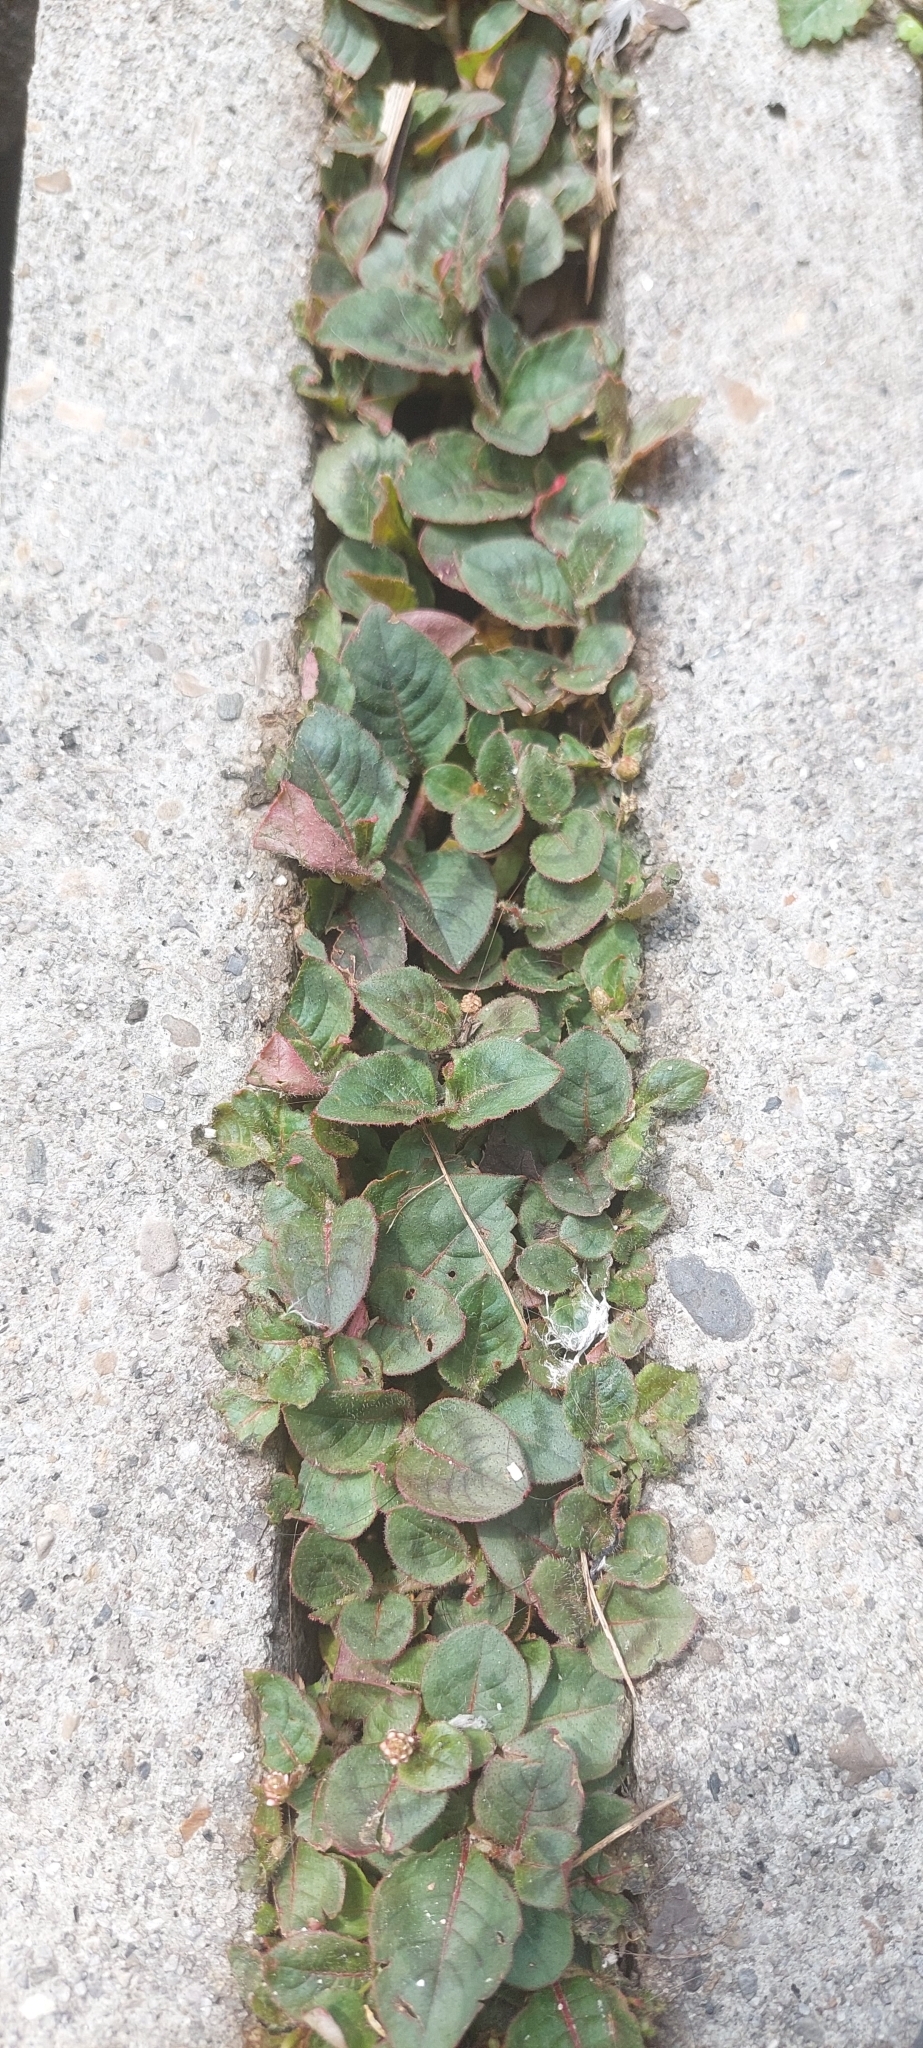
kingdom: Plantae
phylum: Tracheophyta
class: Magnoliopsida
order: Caryophyllales
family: Polygonaceae
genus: Persicaria
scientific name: Persicaria capitata
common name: Pinkhead smartweed
